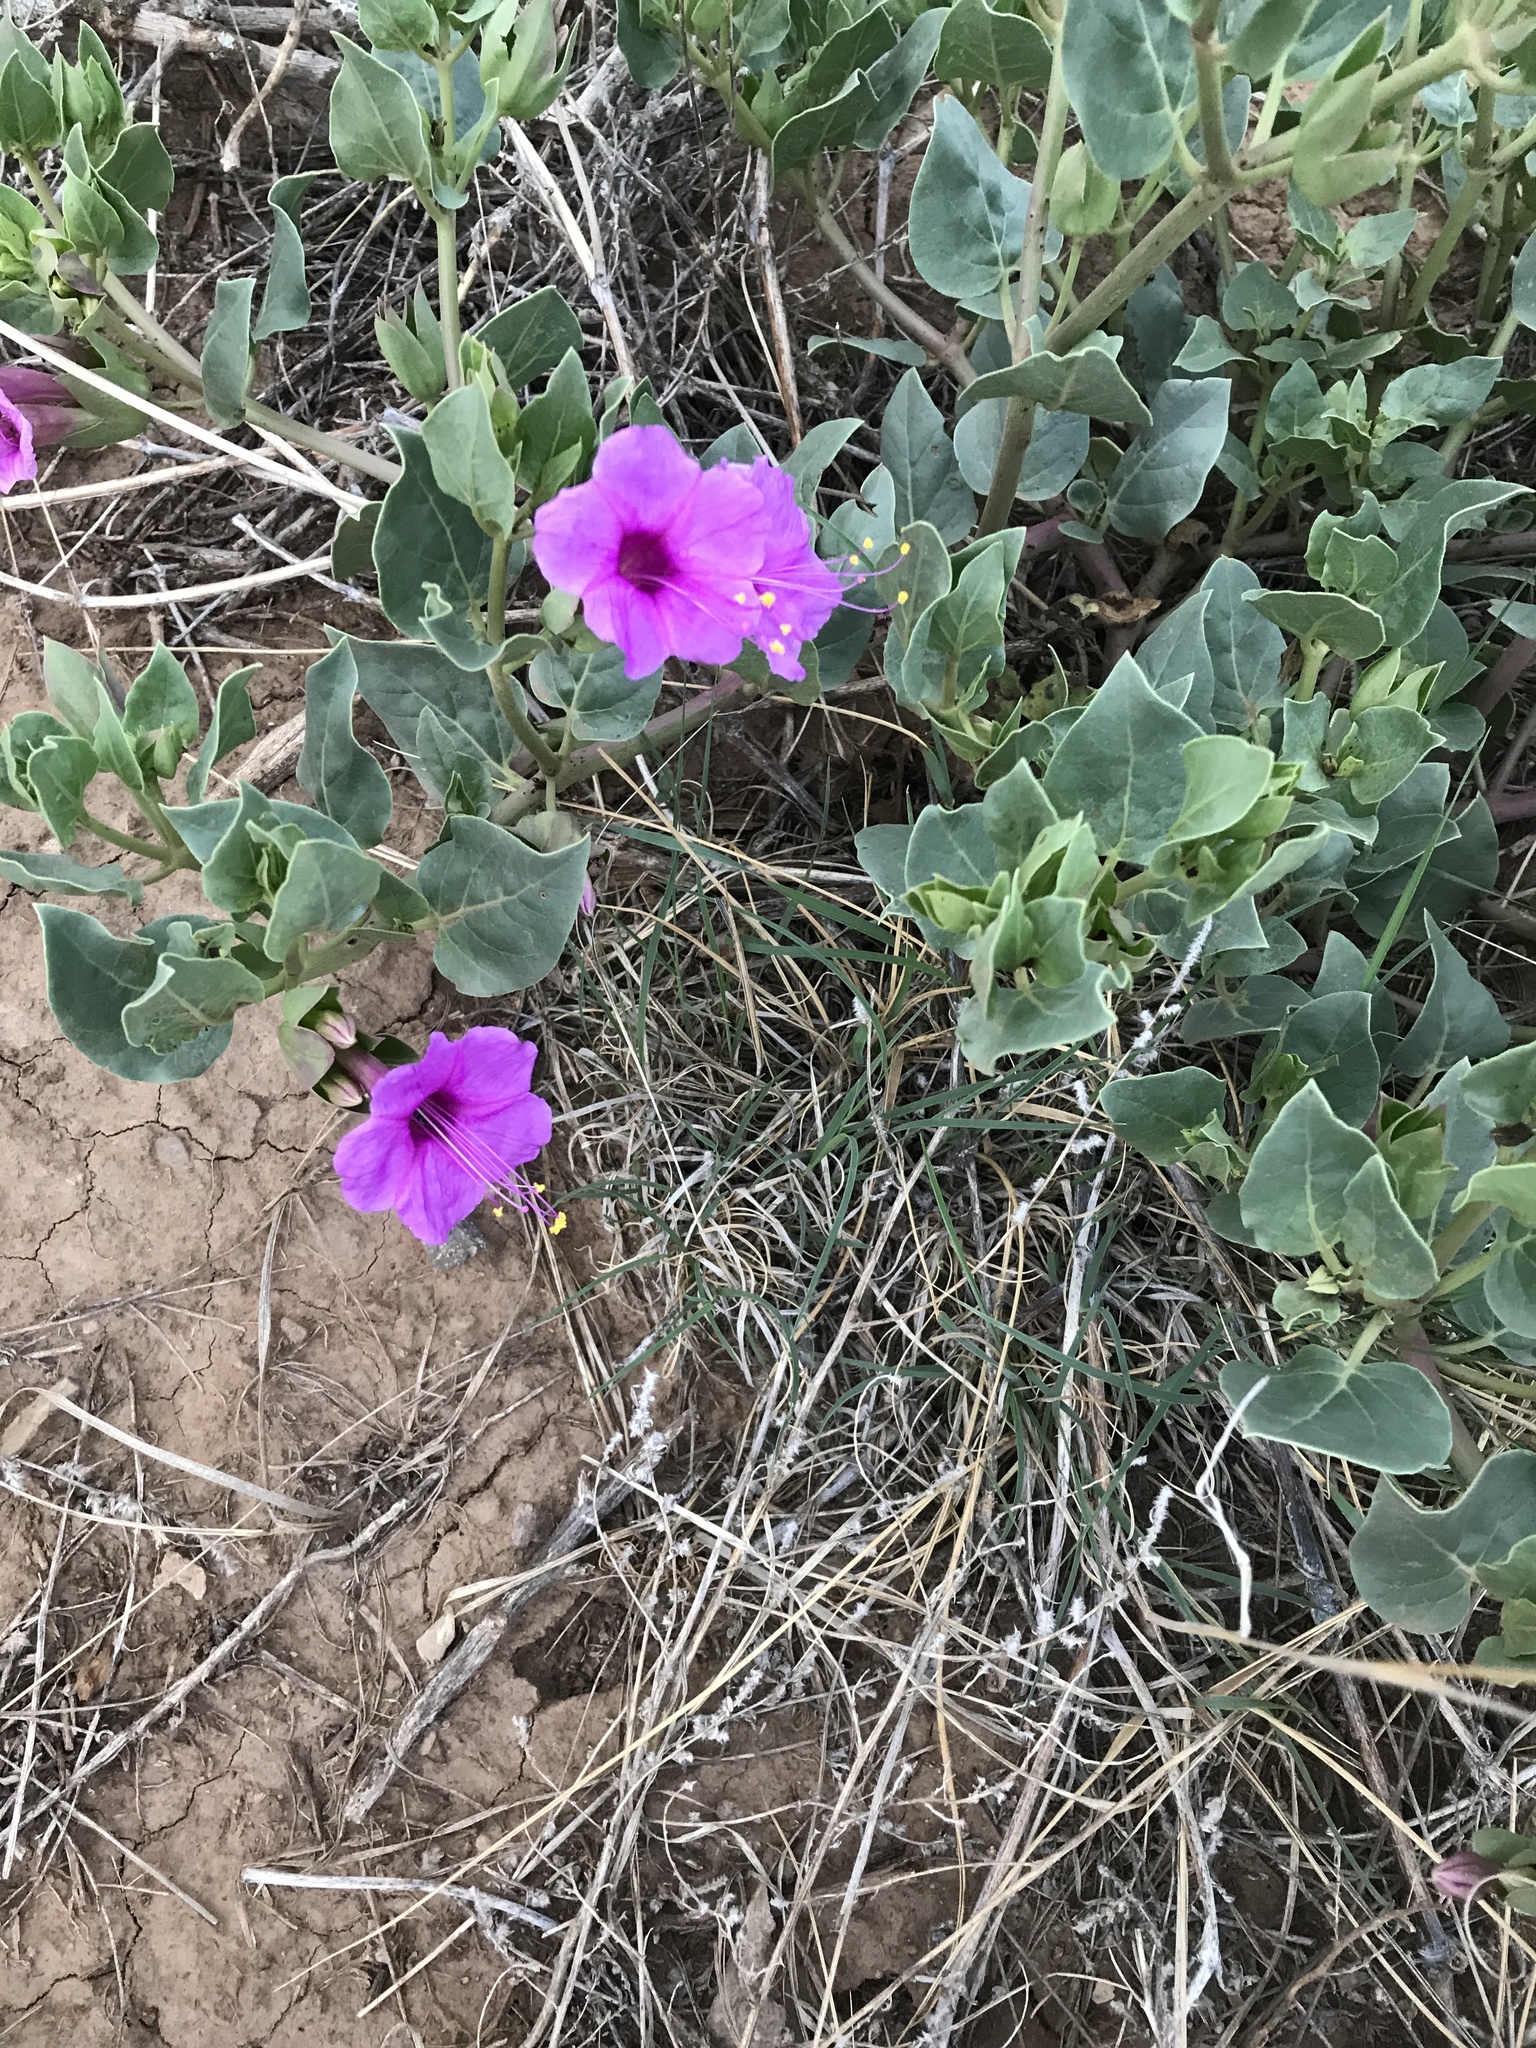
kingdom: Plantae
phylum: Tracheophyta
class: Magnoliopsida
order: Caryophyllales
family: Nyctaginaceae
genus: Mirabilis
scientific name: Mirabilis multiflora
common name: Froebel's four-o'clock
